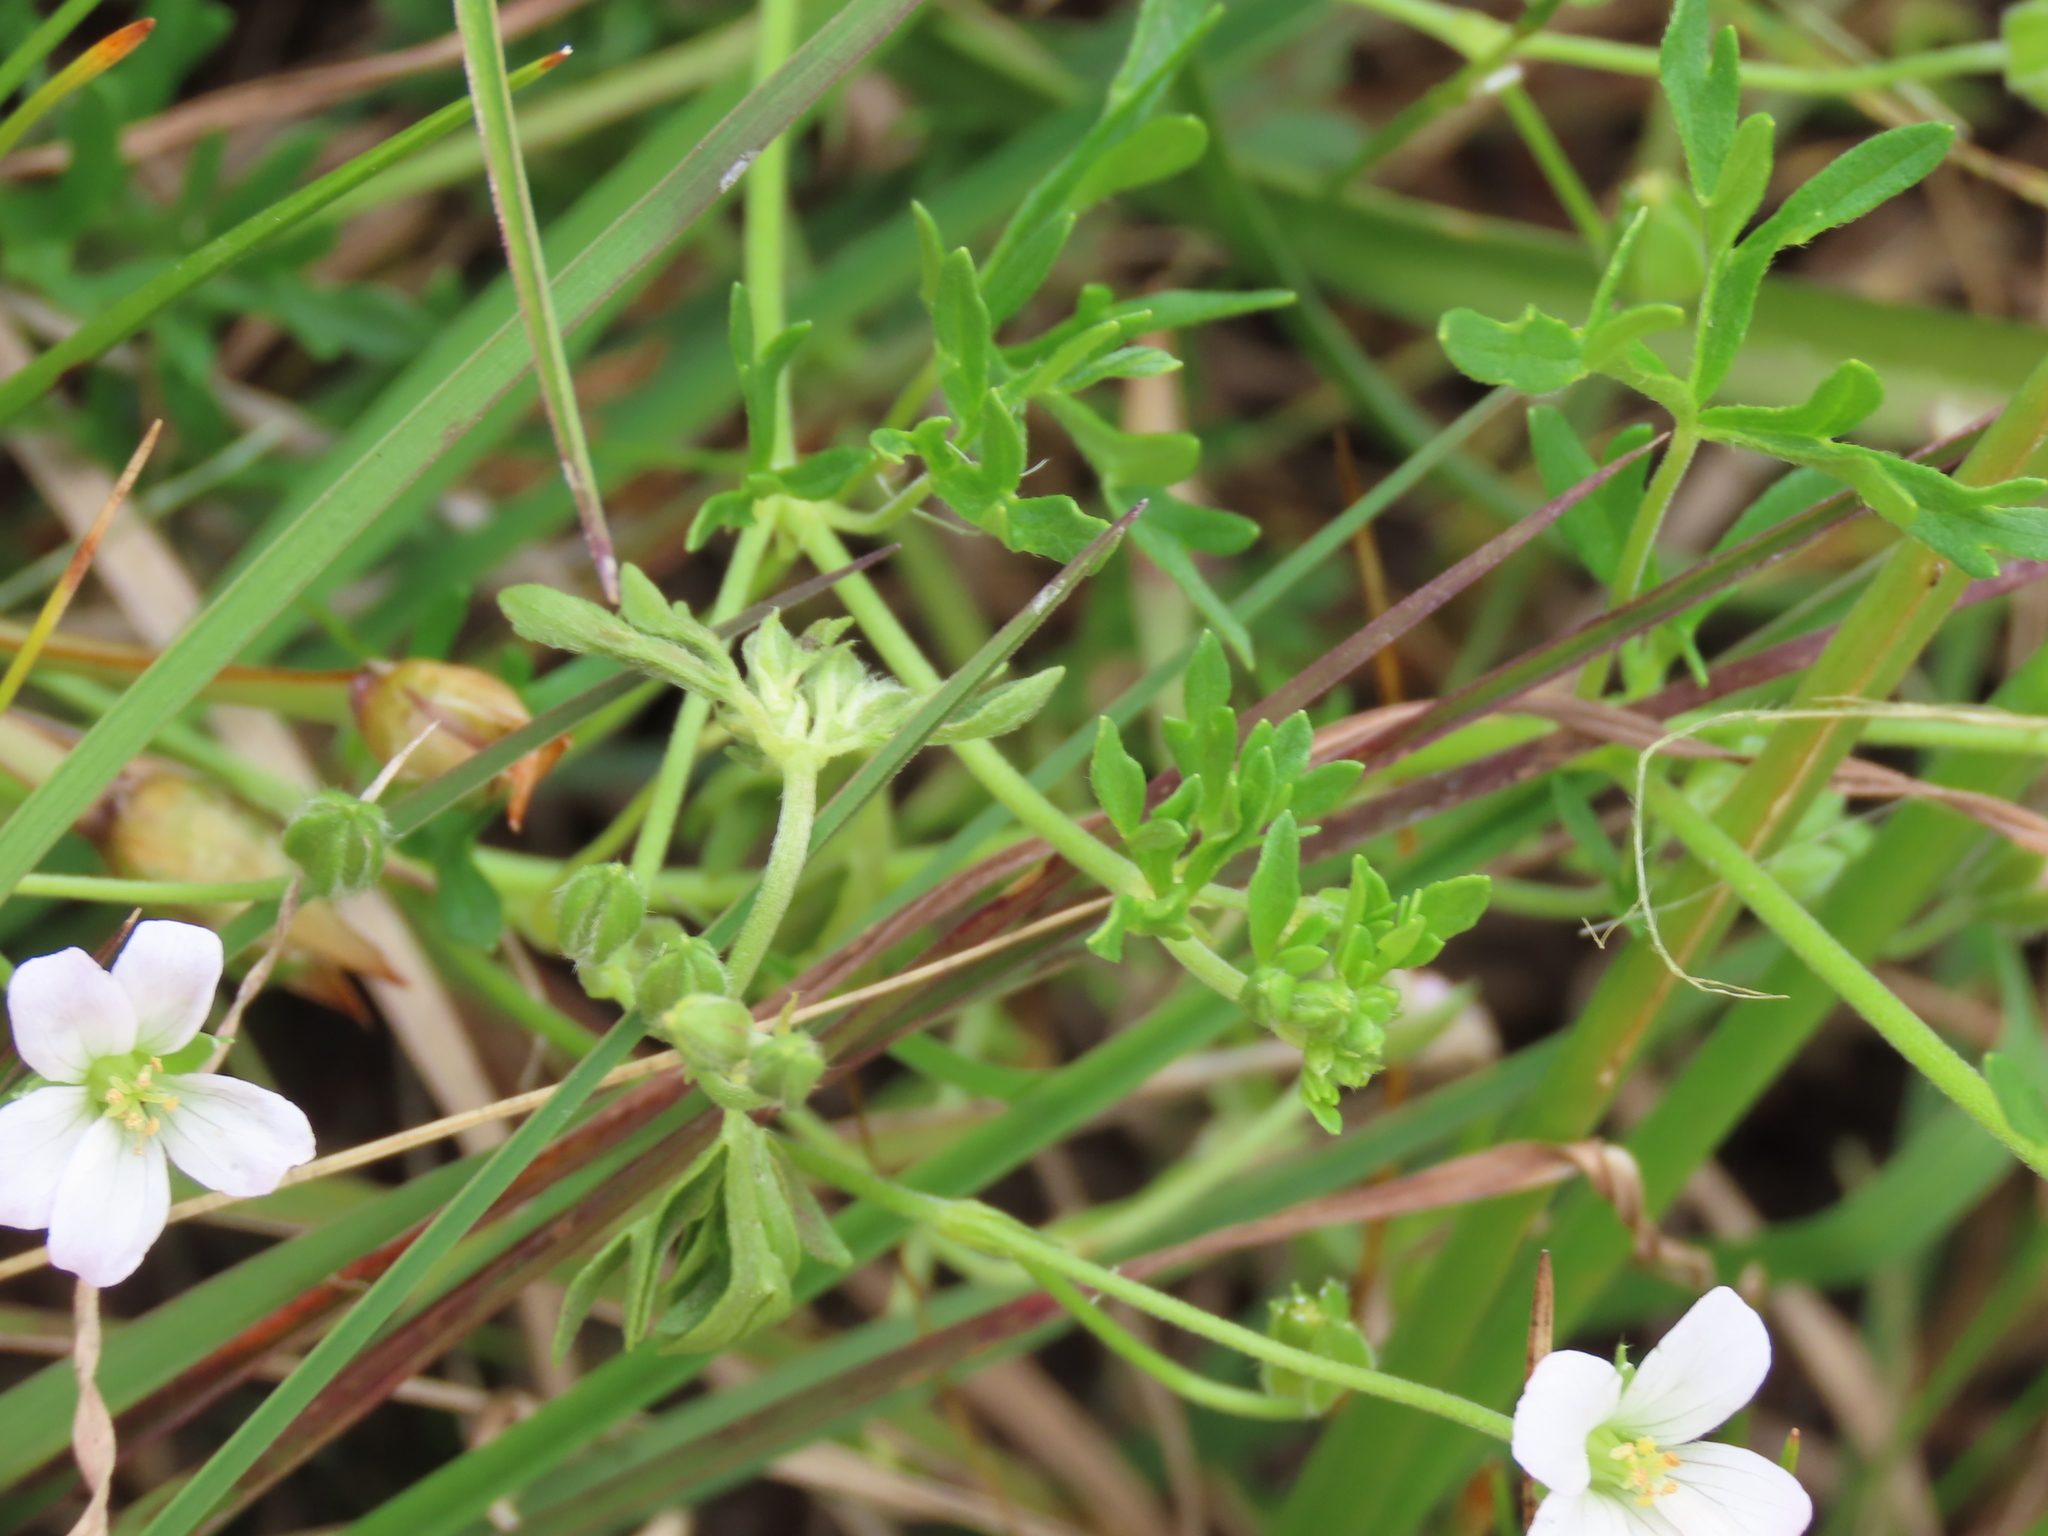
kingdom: Plantae
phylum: Tracheophyta
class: Magnoliopsida
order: Geraniales
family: Geraniaceae
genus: Geranium
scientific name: Geranium retrorsum
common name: New zealand geranium
